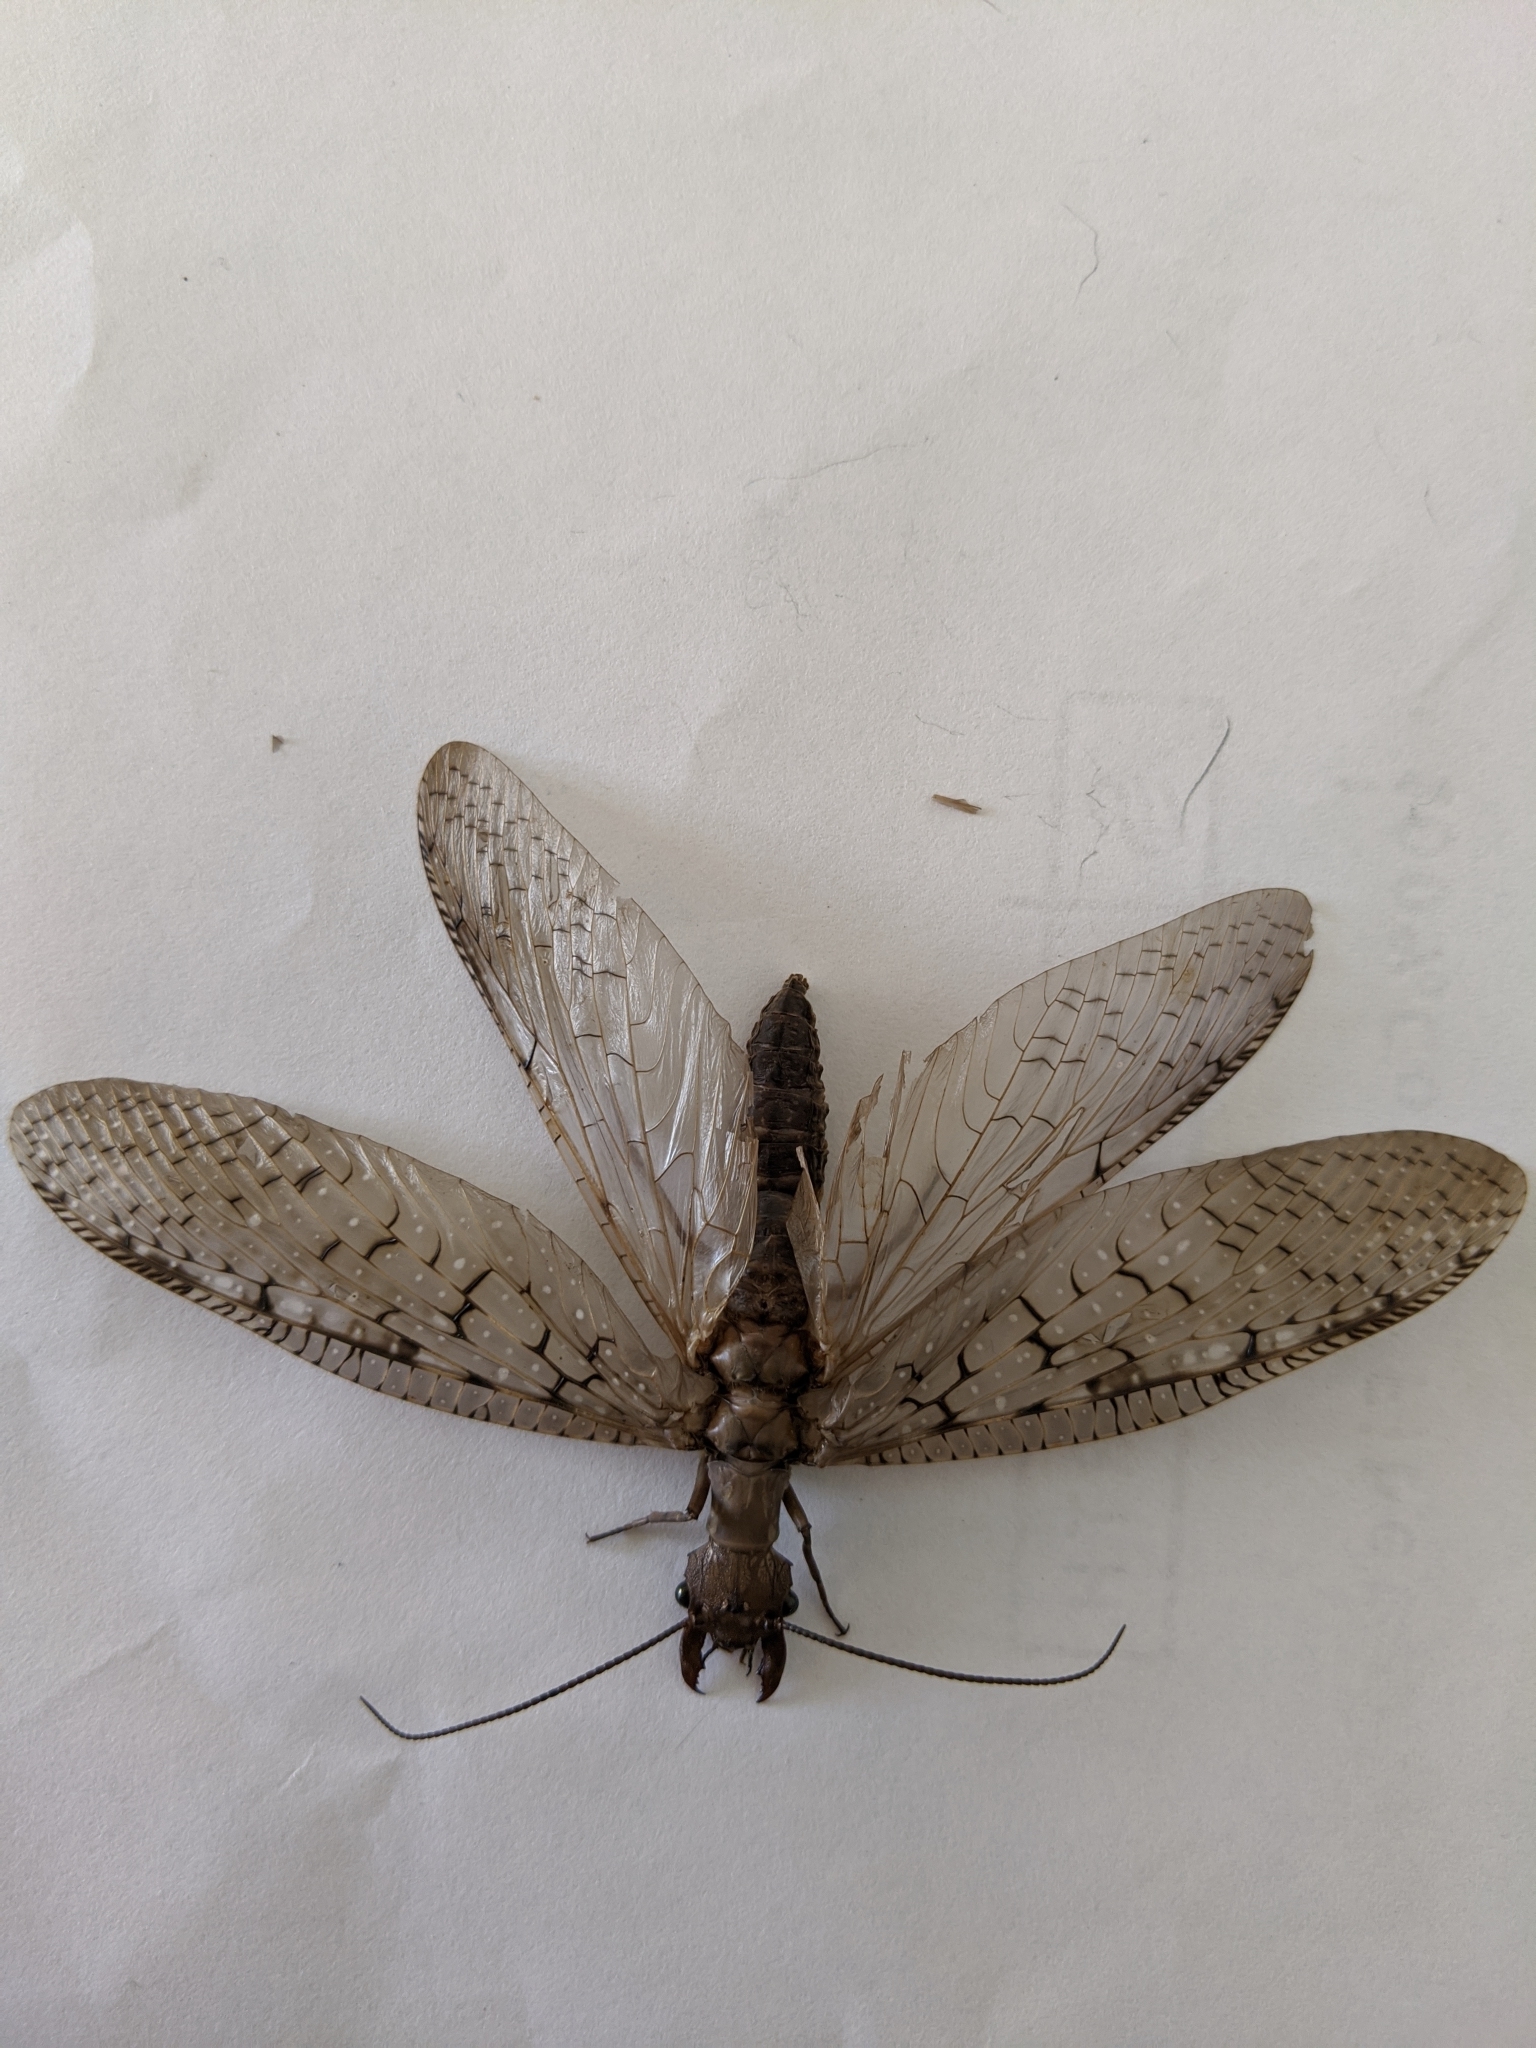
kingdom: Animalia
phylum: Arthropoda
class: Insecta
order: Megaloptera
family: Corydalidae
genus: Corydalus
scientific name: Corydalus cornutus
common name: Dobsonfly
